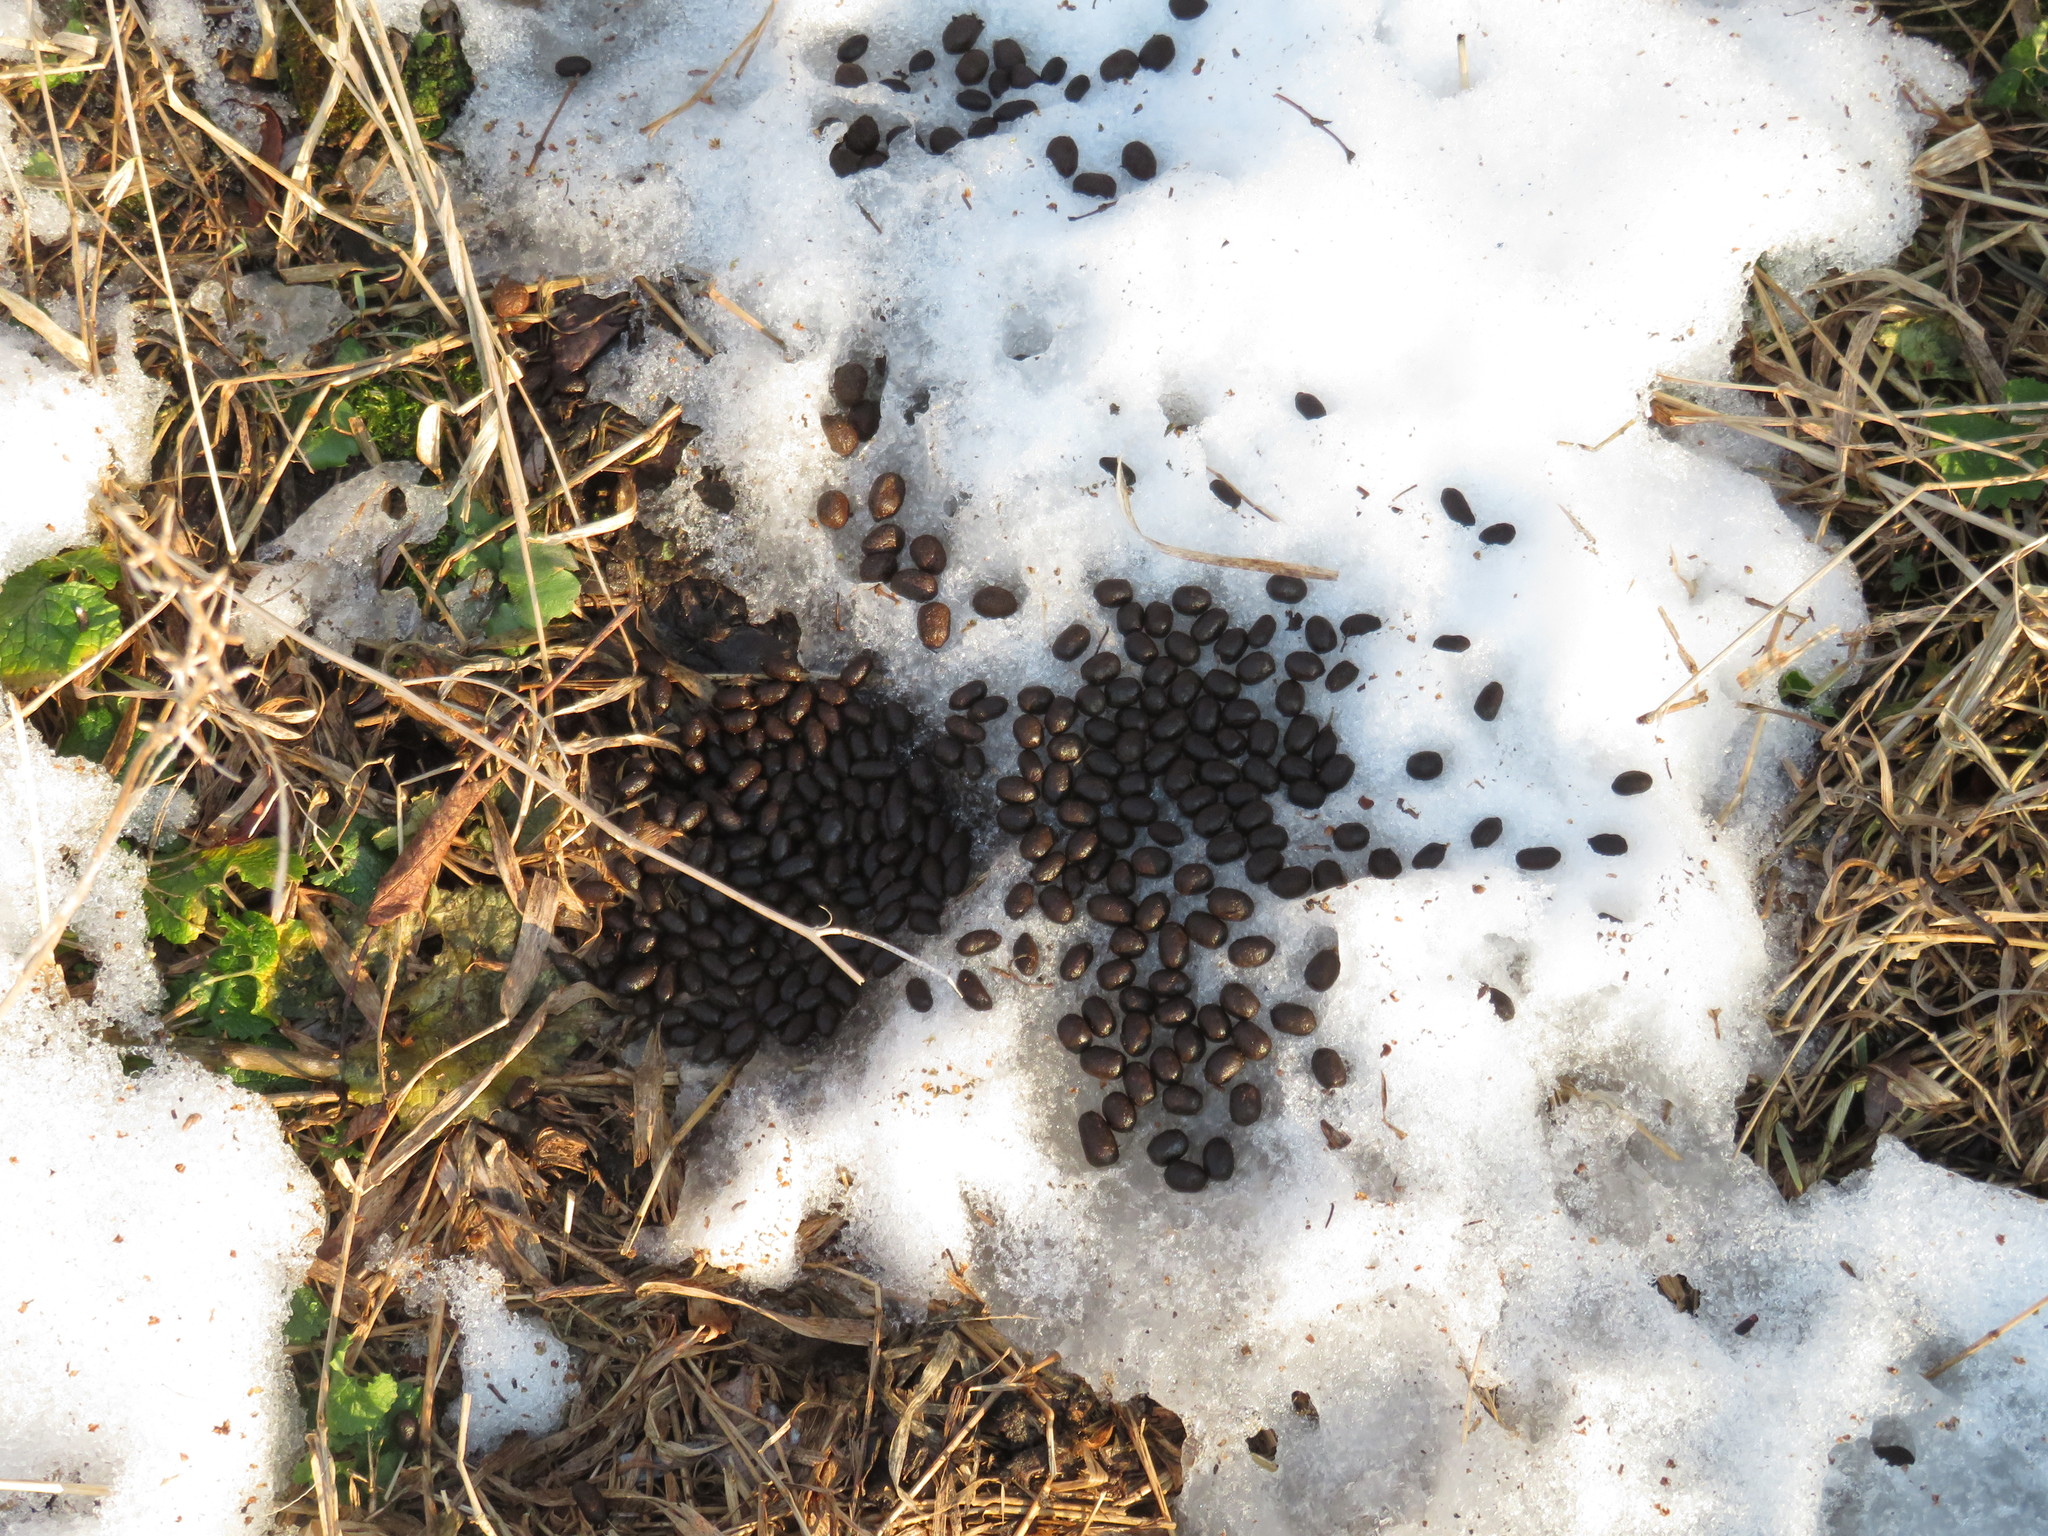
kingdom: Animalia
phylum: Chordata
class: Mammalia
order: Artiodactyla
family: Cervidae
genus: Odocoileus
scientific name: Odocoileus virginianus
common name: White-tailed deer
